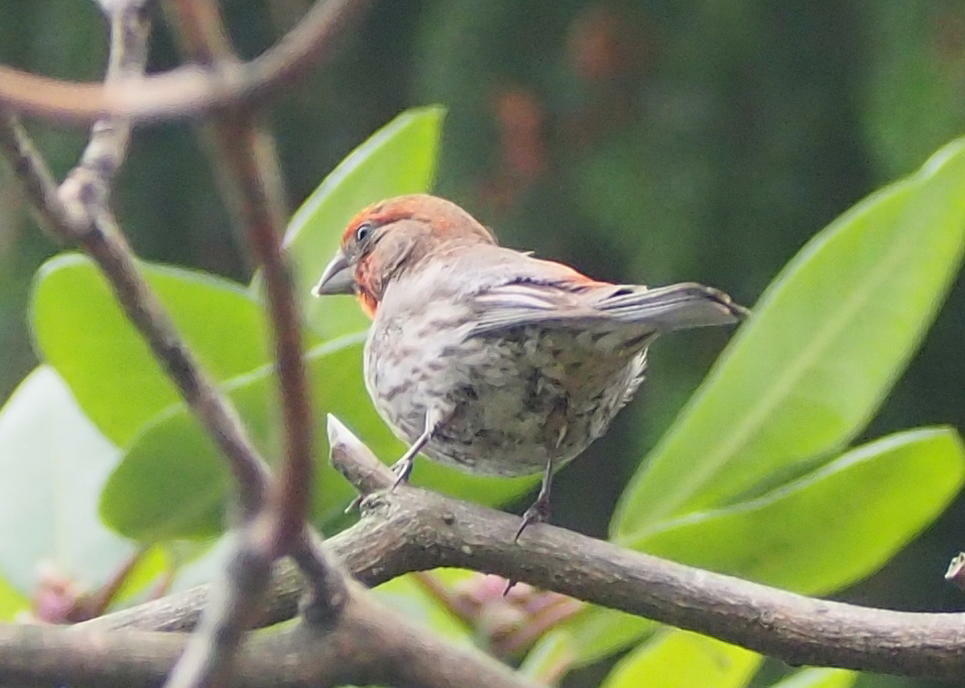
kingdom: Animalia
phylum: Chordata
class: Aves
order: Passeriformes
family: Fringillidae
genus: Haemorhous
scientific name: Haemorhous mexicanus
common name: House finch
